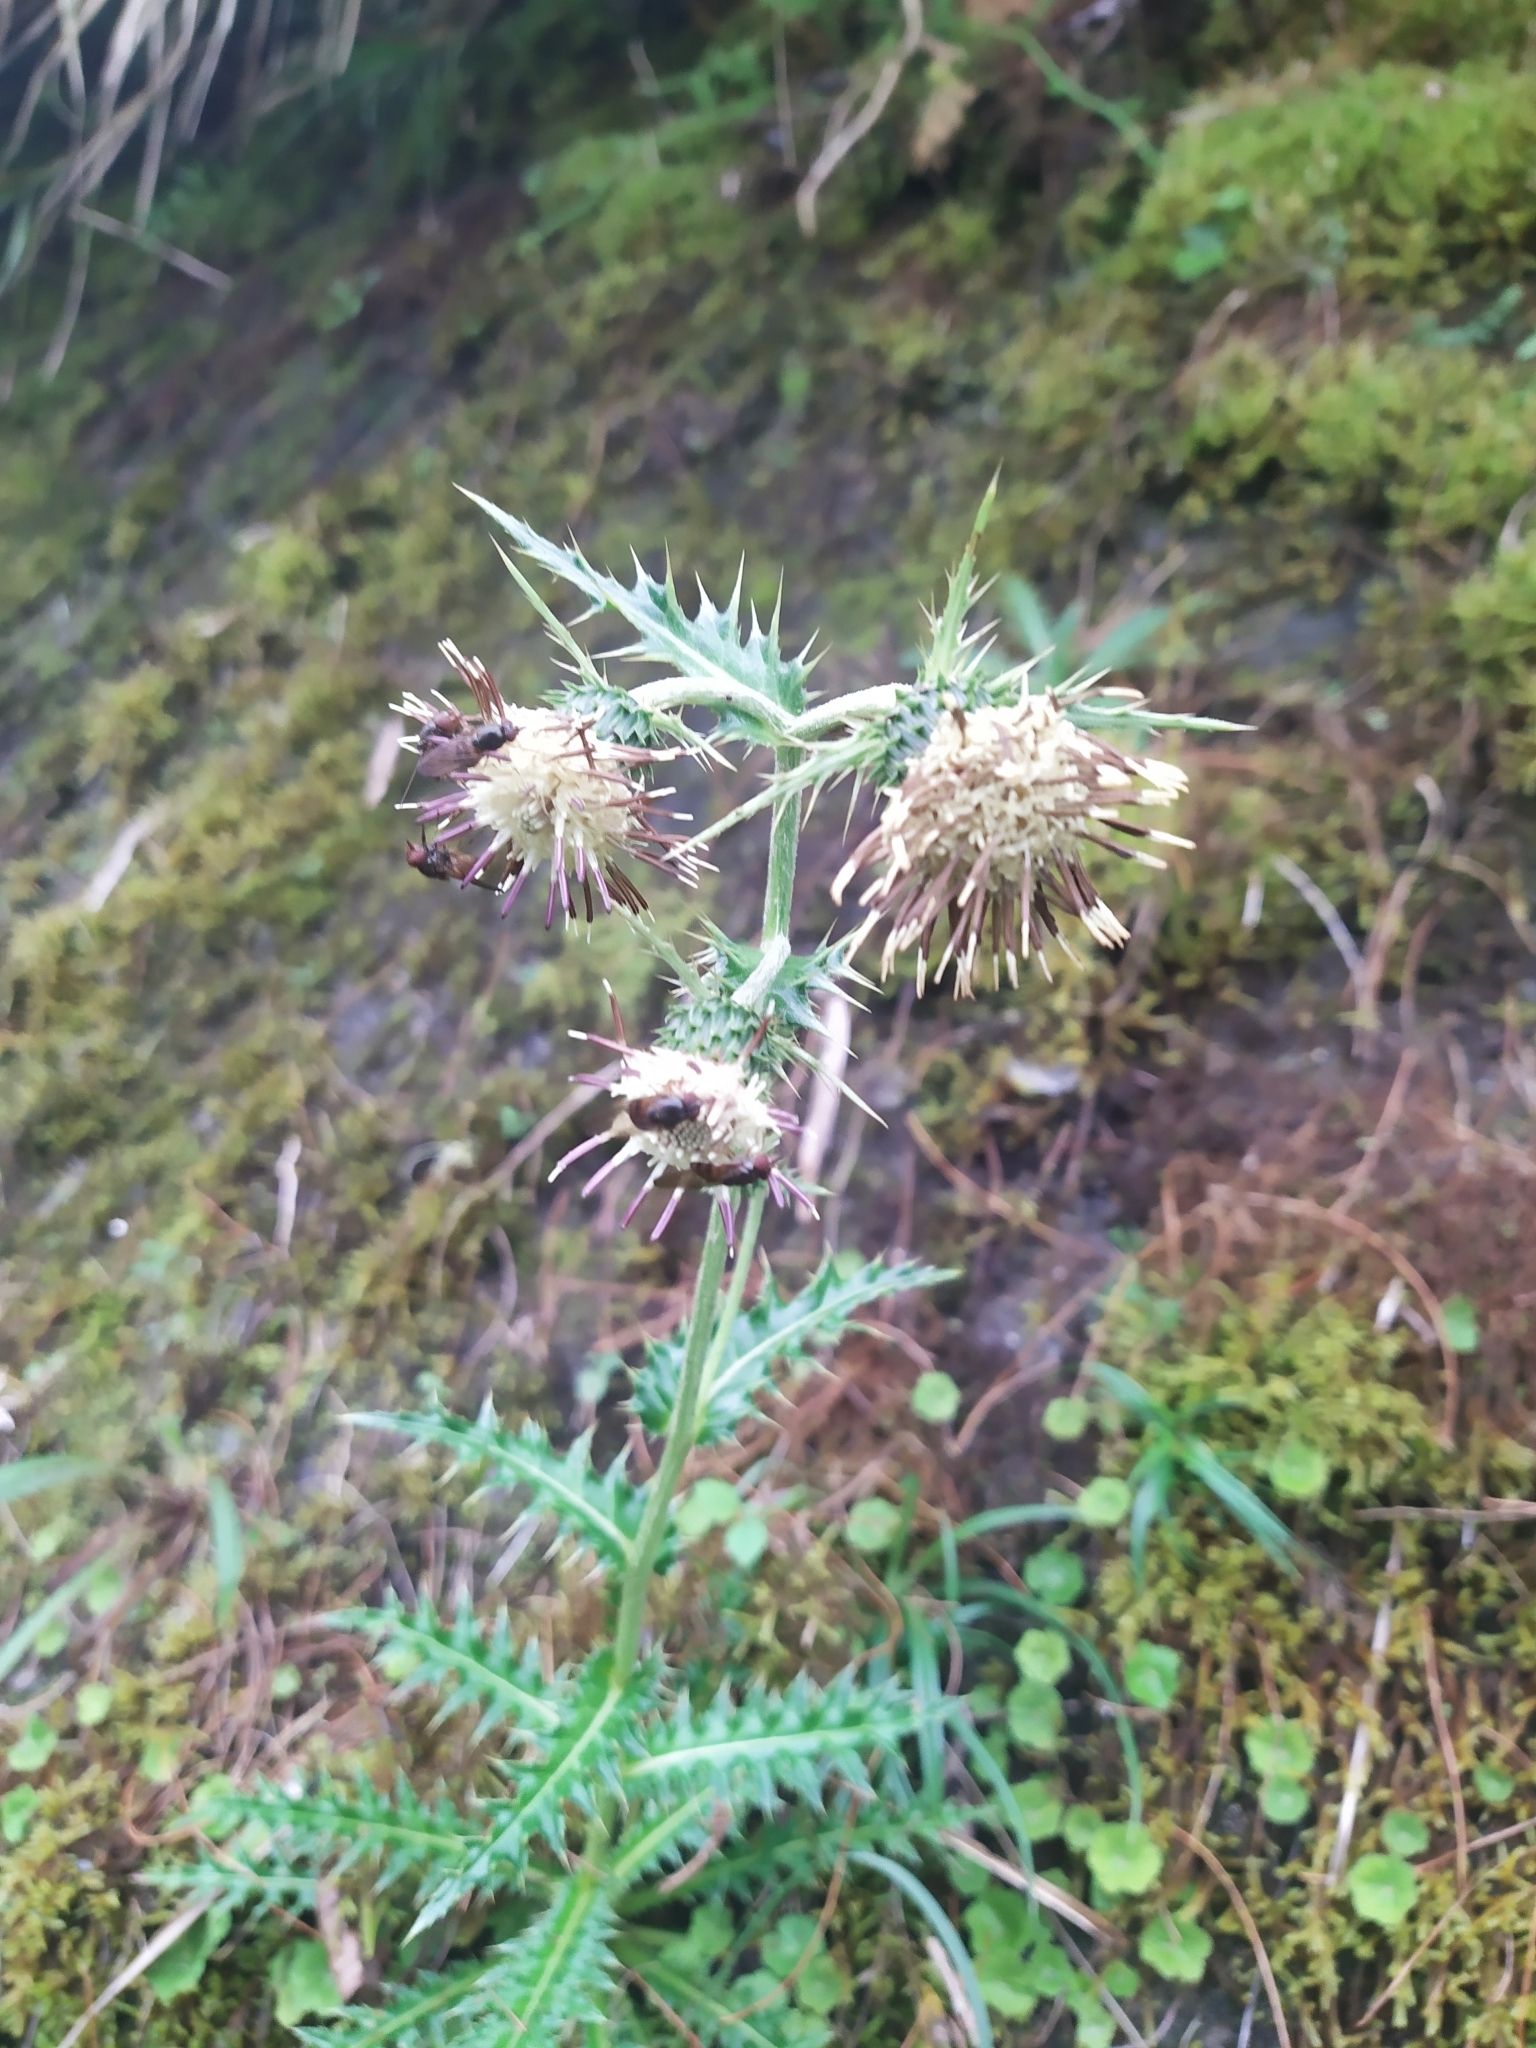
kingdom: Plantae
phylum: Tracheophyta
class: Magnoliopsida
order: Asterales
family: Asteraceae
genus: Cirsium
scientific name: Cirsium arisanense
